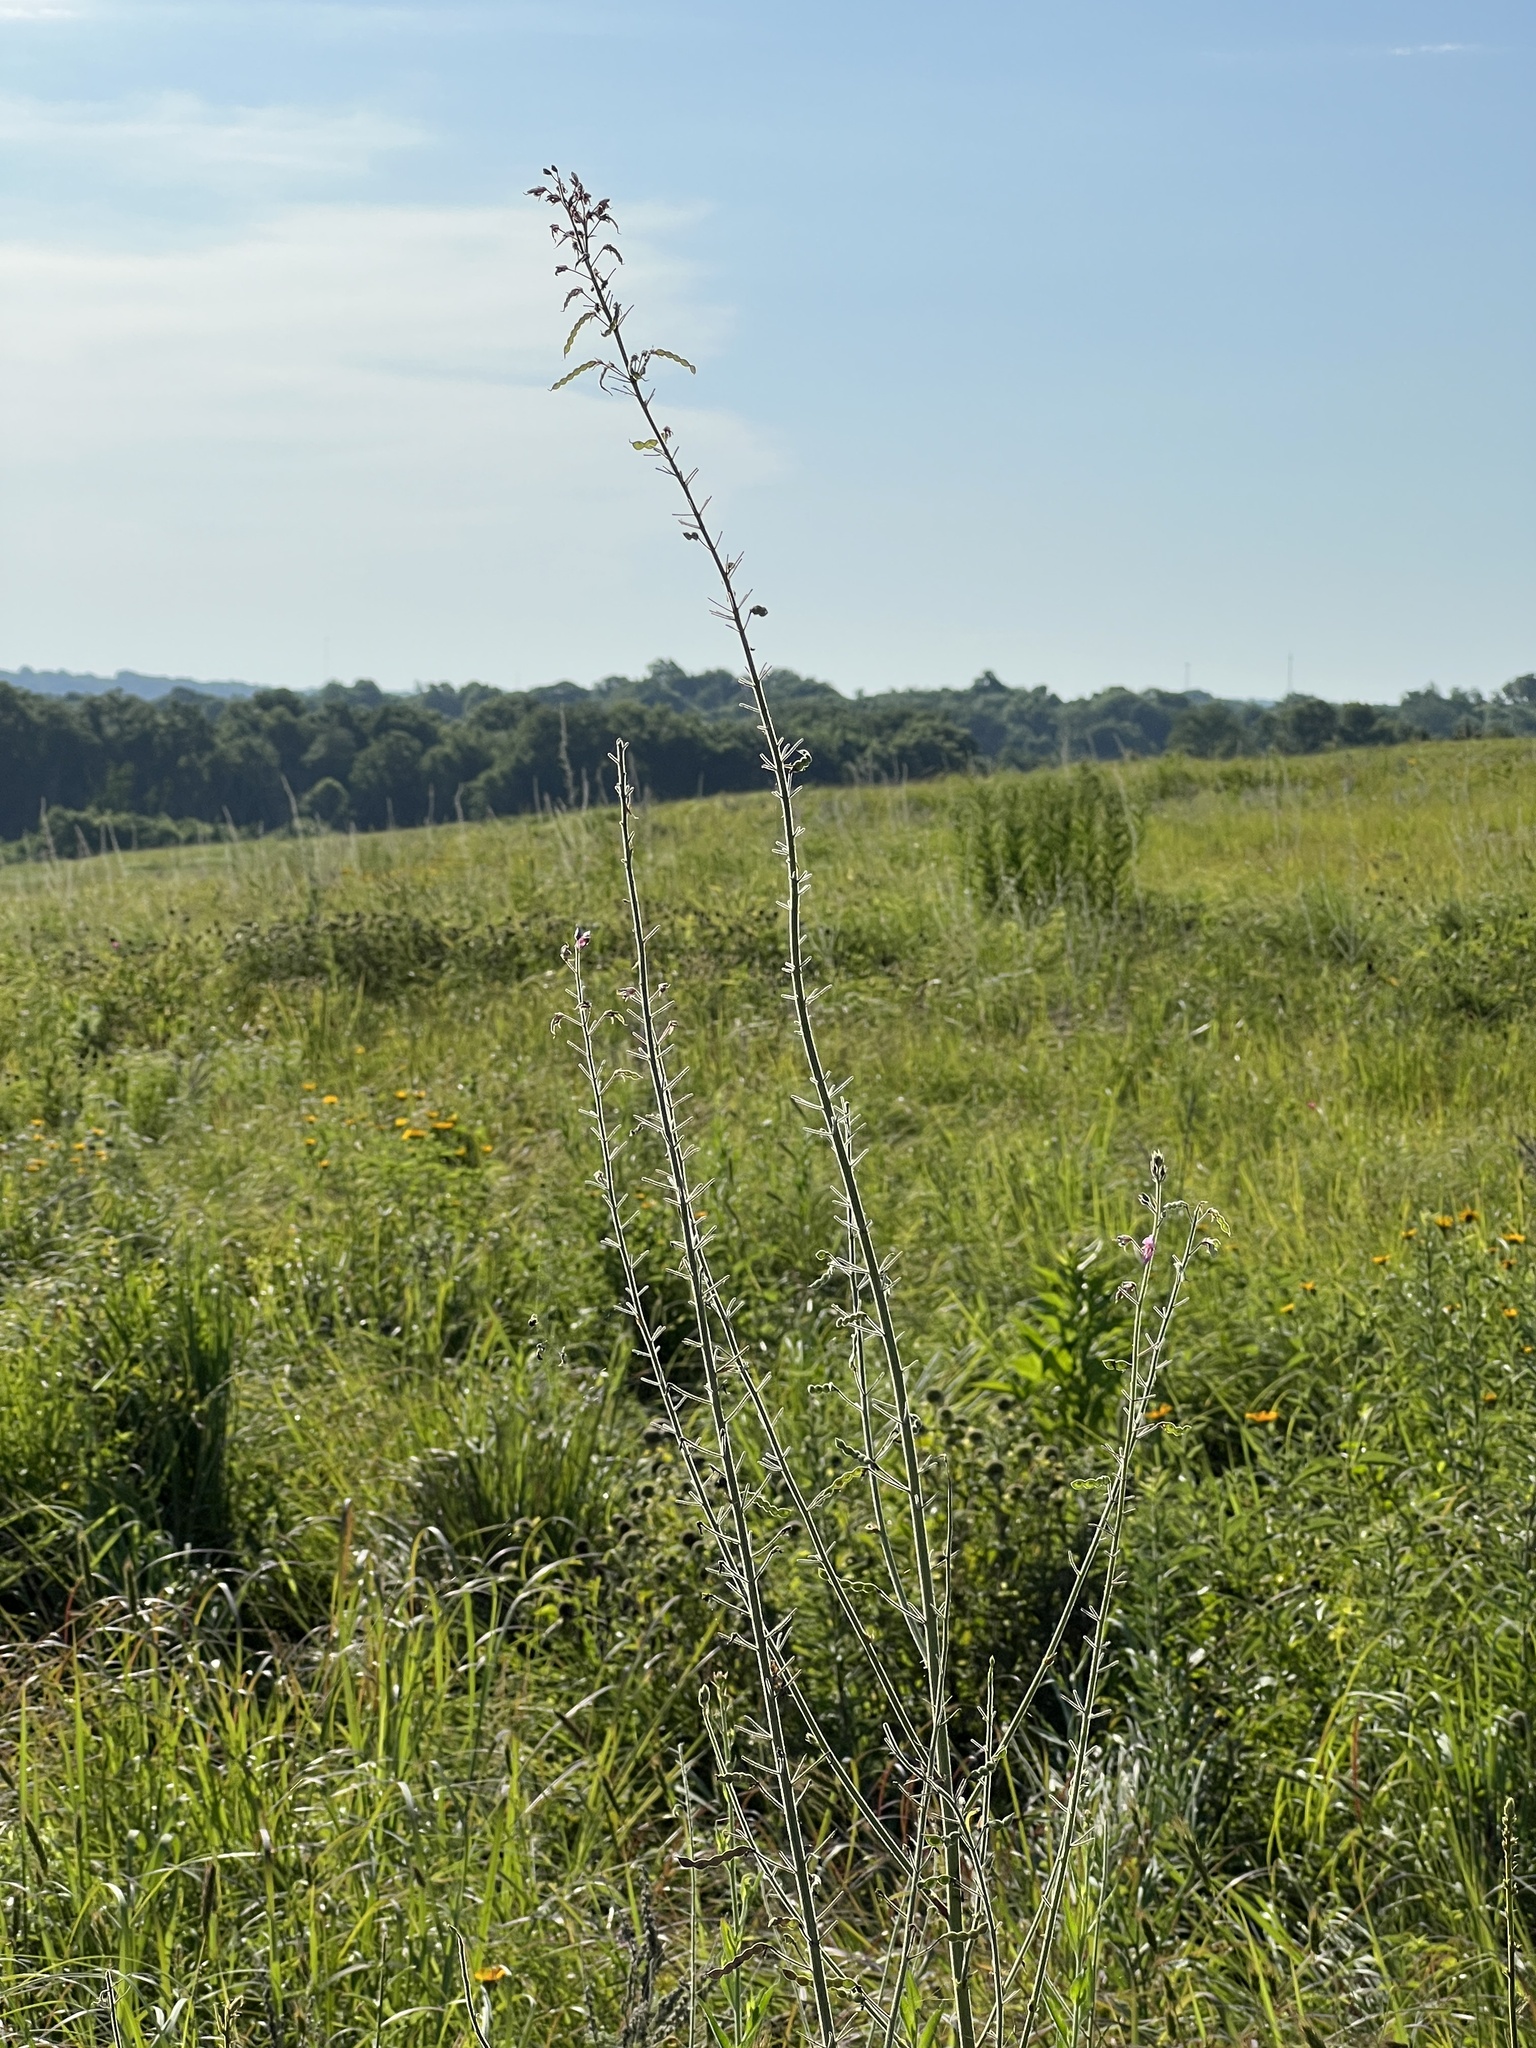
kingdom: Plantae
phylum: Tracheophyta
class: Magnoliopsida
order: Fabales
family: Fabaceae
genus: Desmodium
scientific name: Desmodium illinoense
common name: Illinois tick-clover
